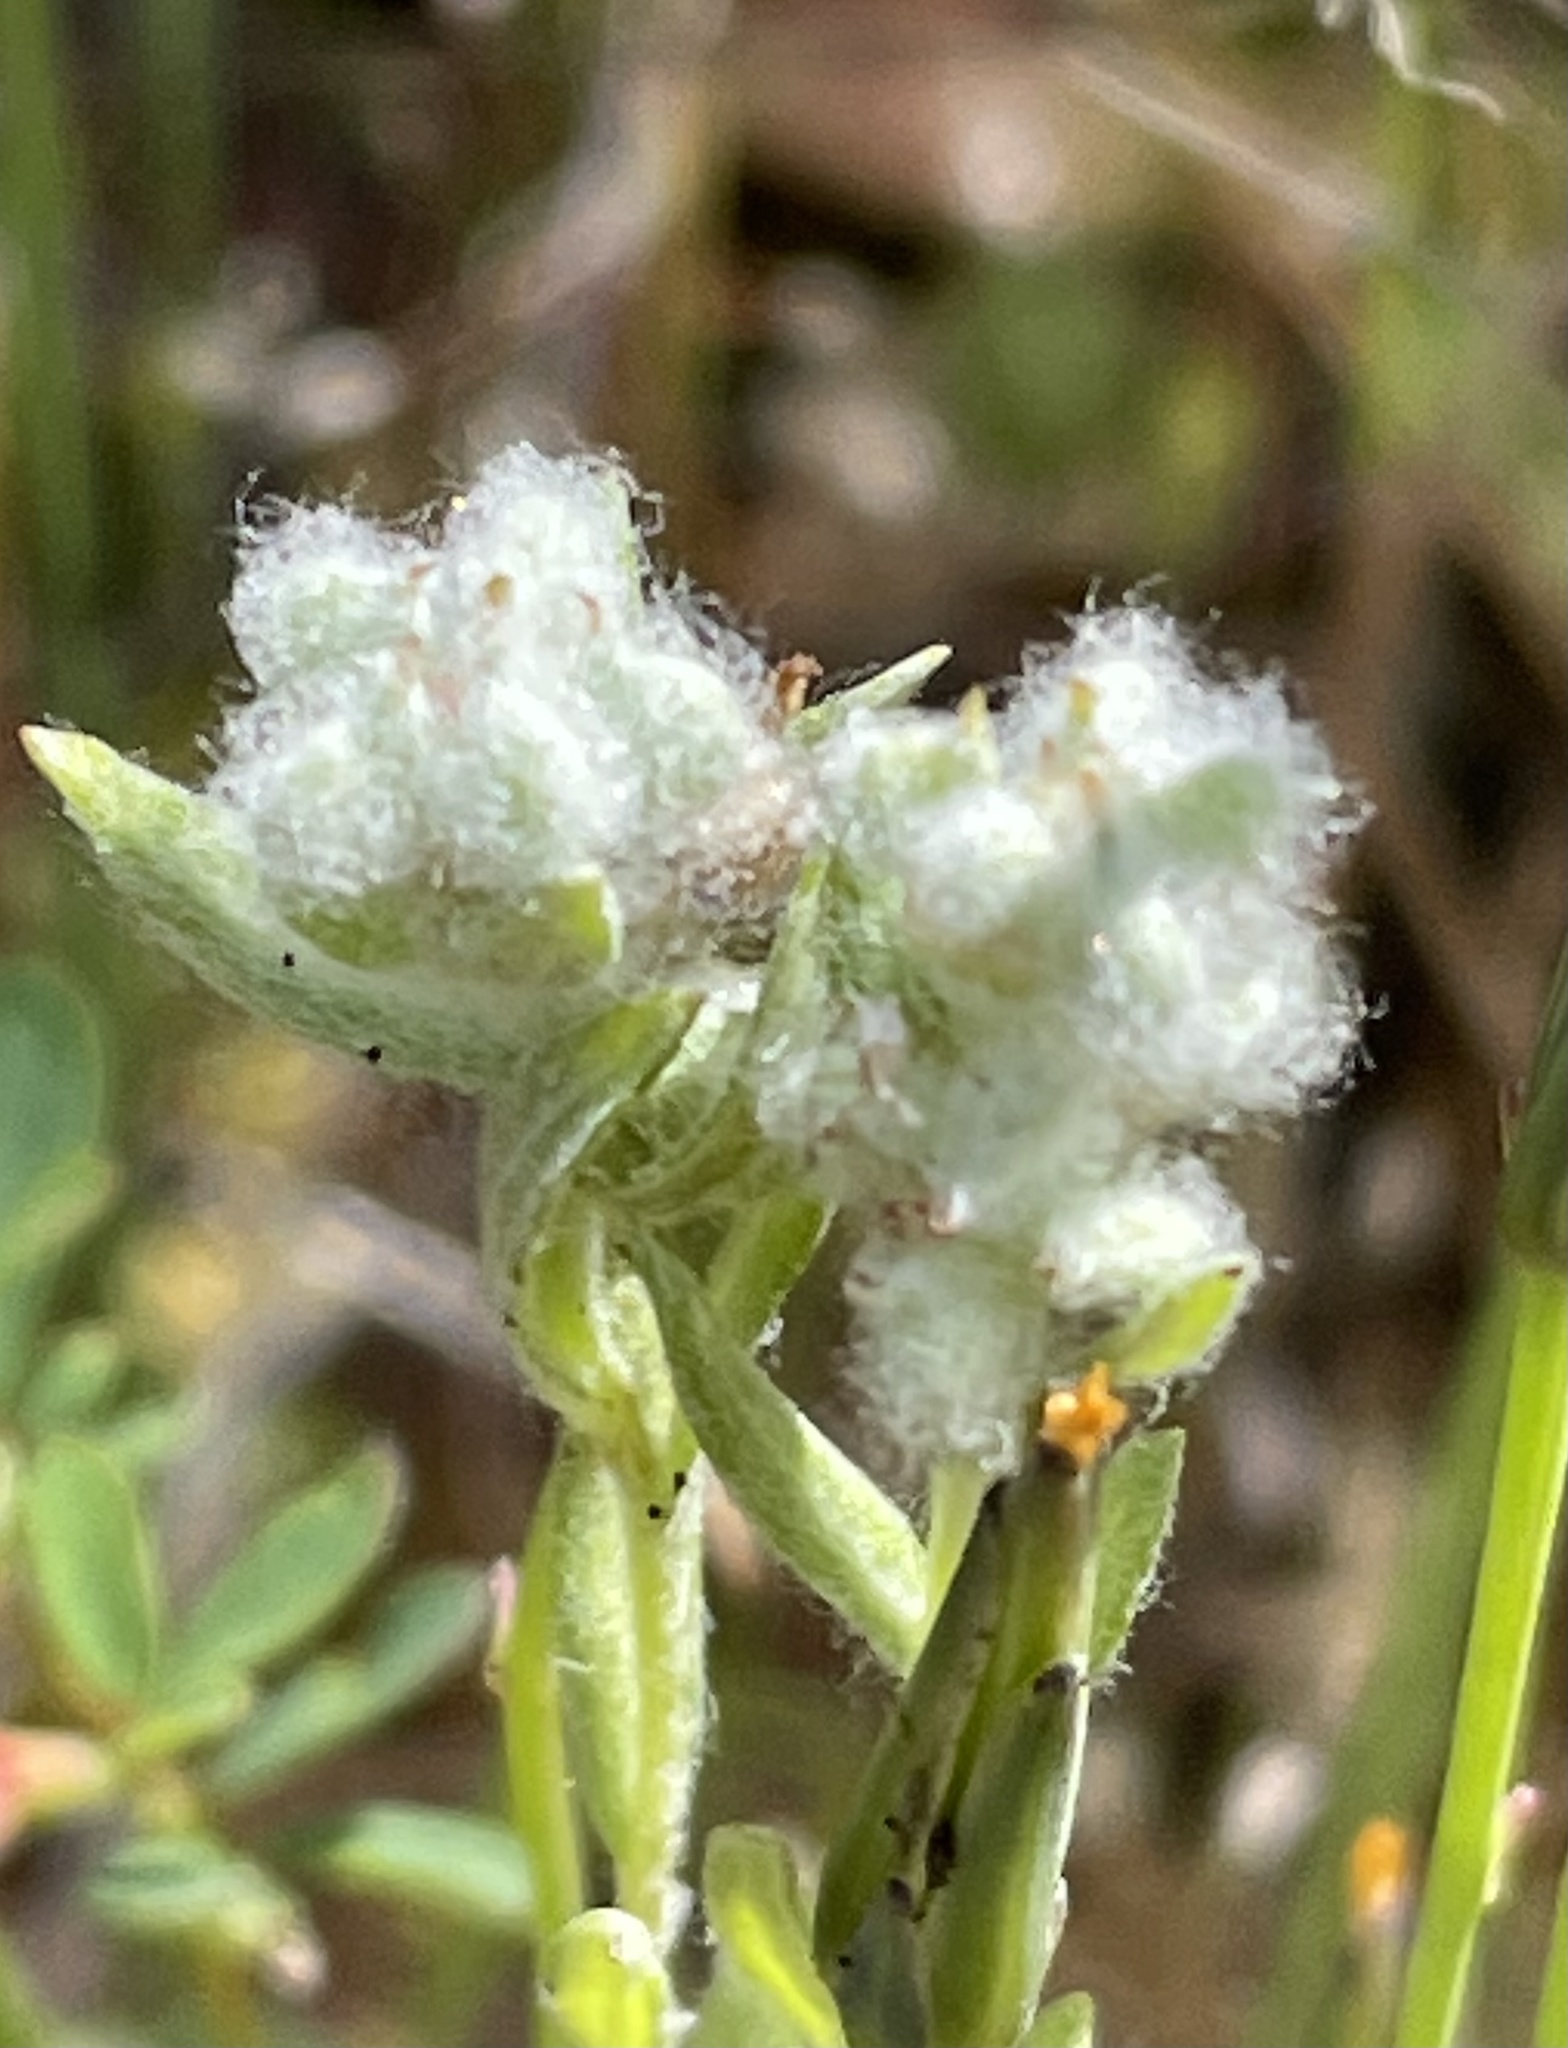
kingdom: Plantae
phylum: Tracheophyta
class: Magnoliopsida
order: Asterales
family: Asteraceae
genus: Bombycilaena
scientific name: Bombycilaena californica
